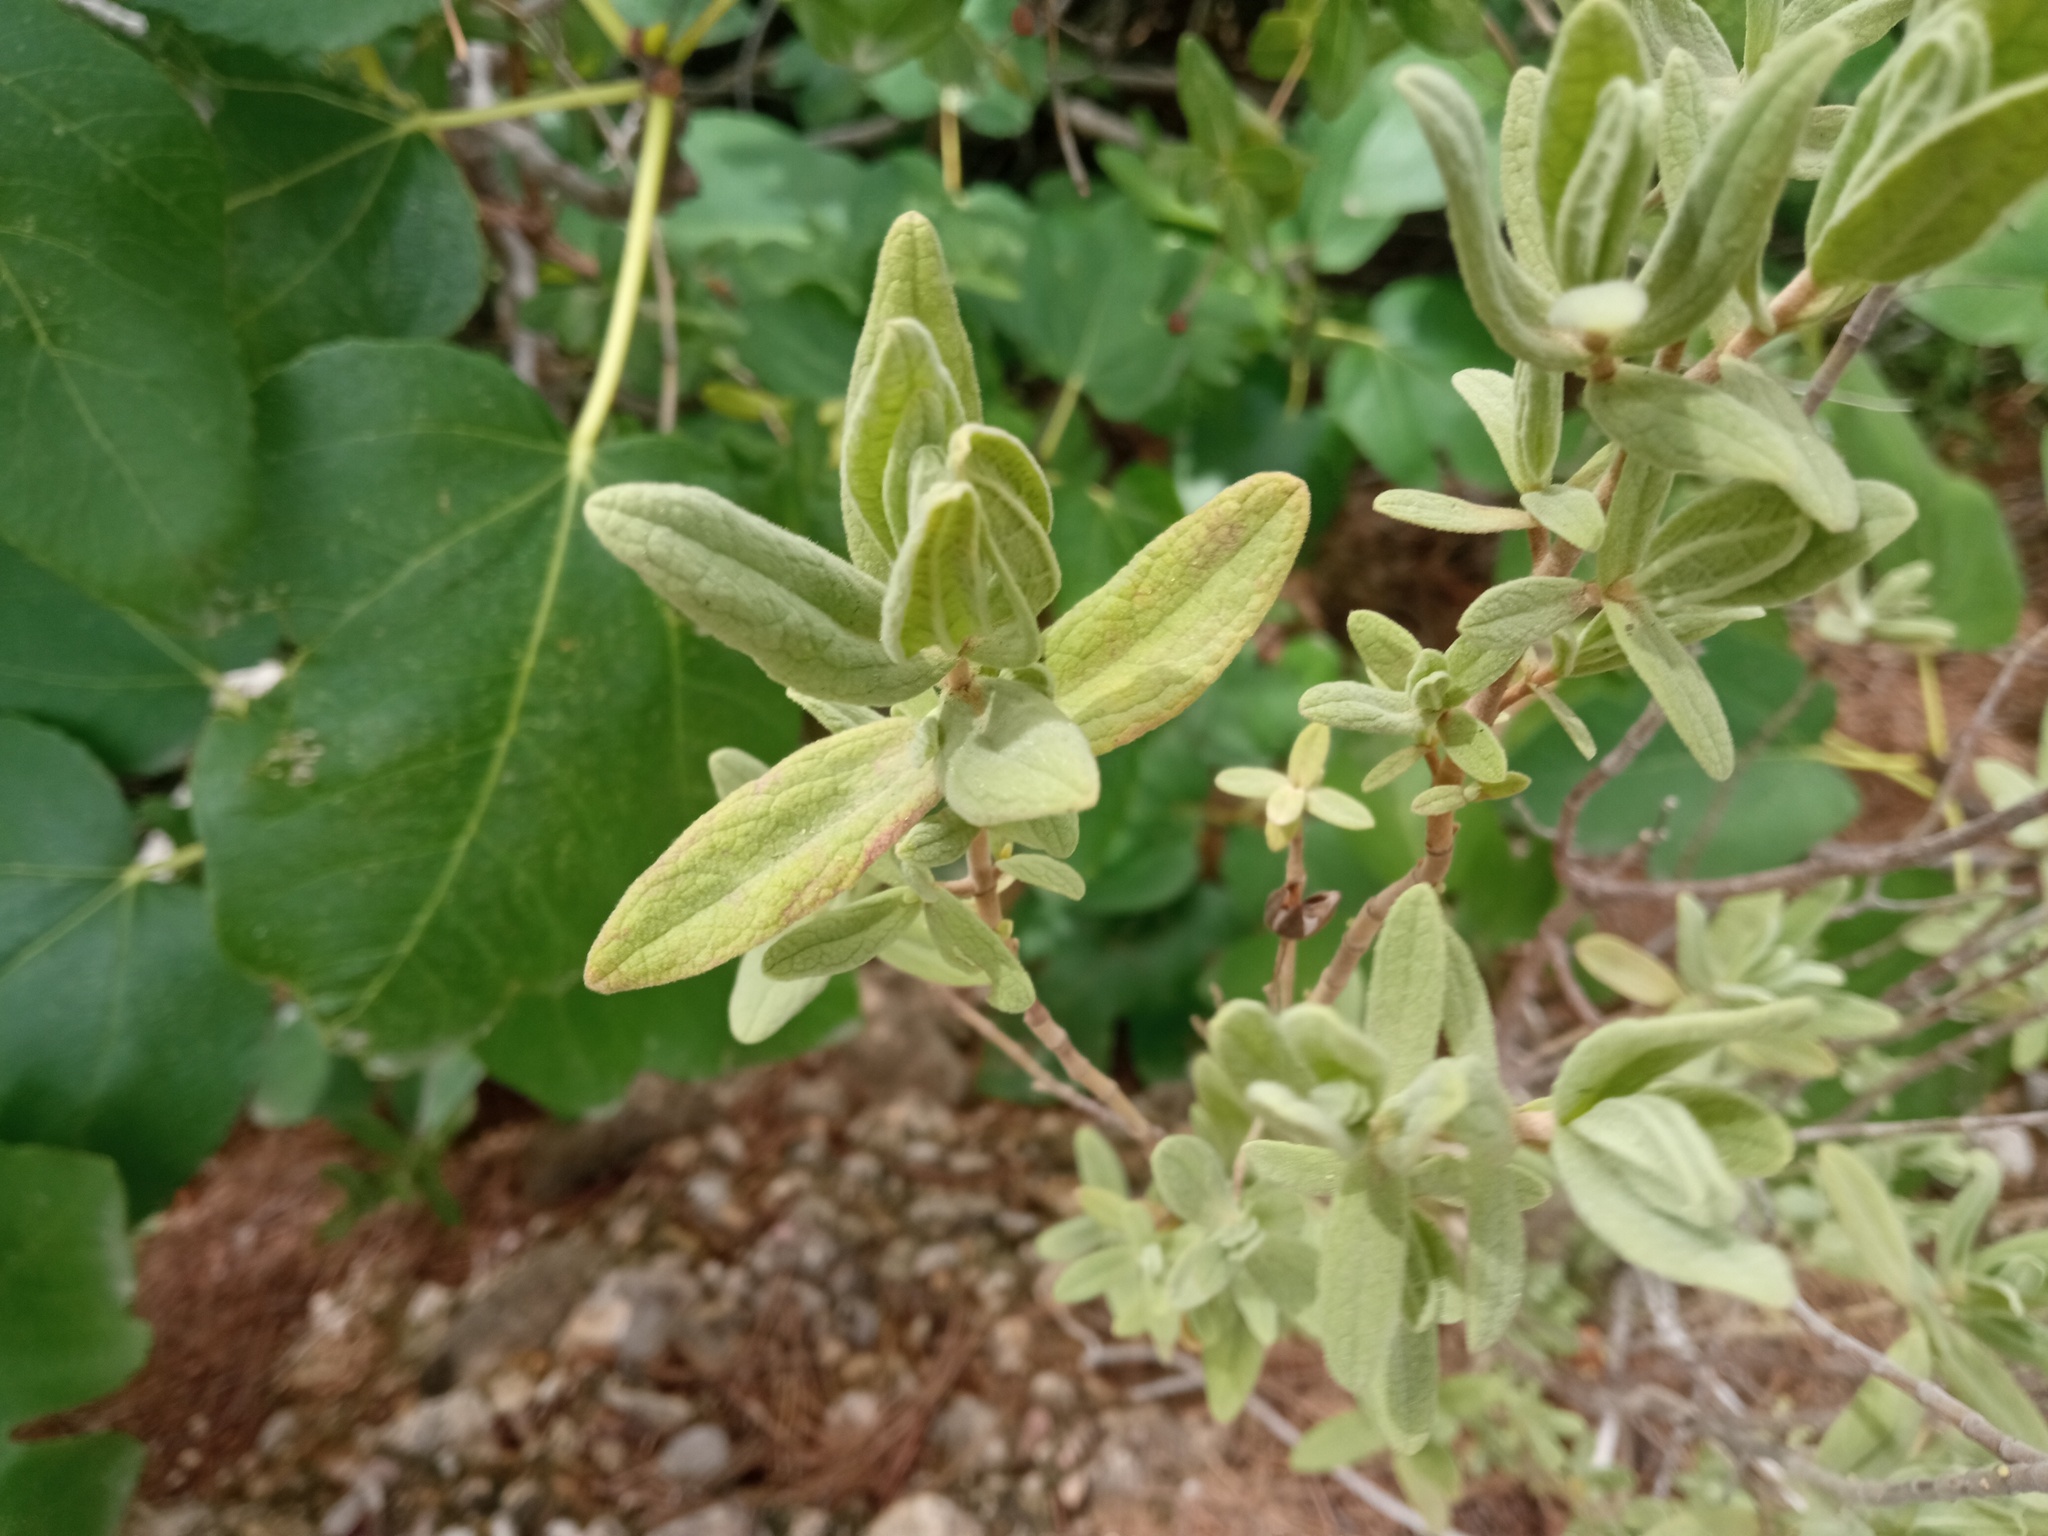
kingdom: Plantae
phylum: Tracheophyta
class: Magnoliopsida
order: Malvales
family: Cistaceae
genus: Cistus
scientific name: Cistus albidus
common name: White-leaf rock-rose
